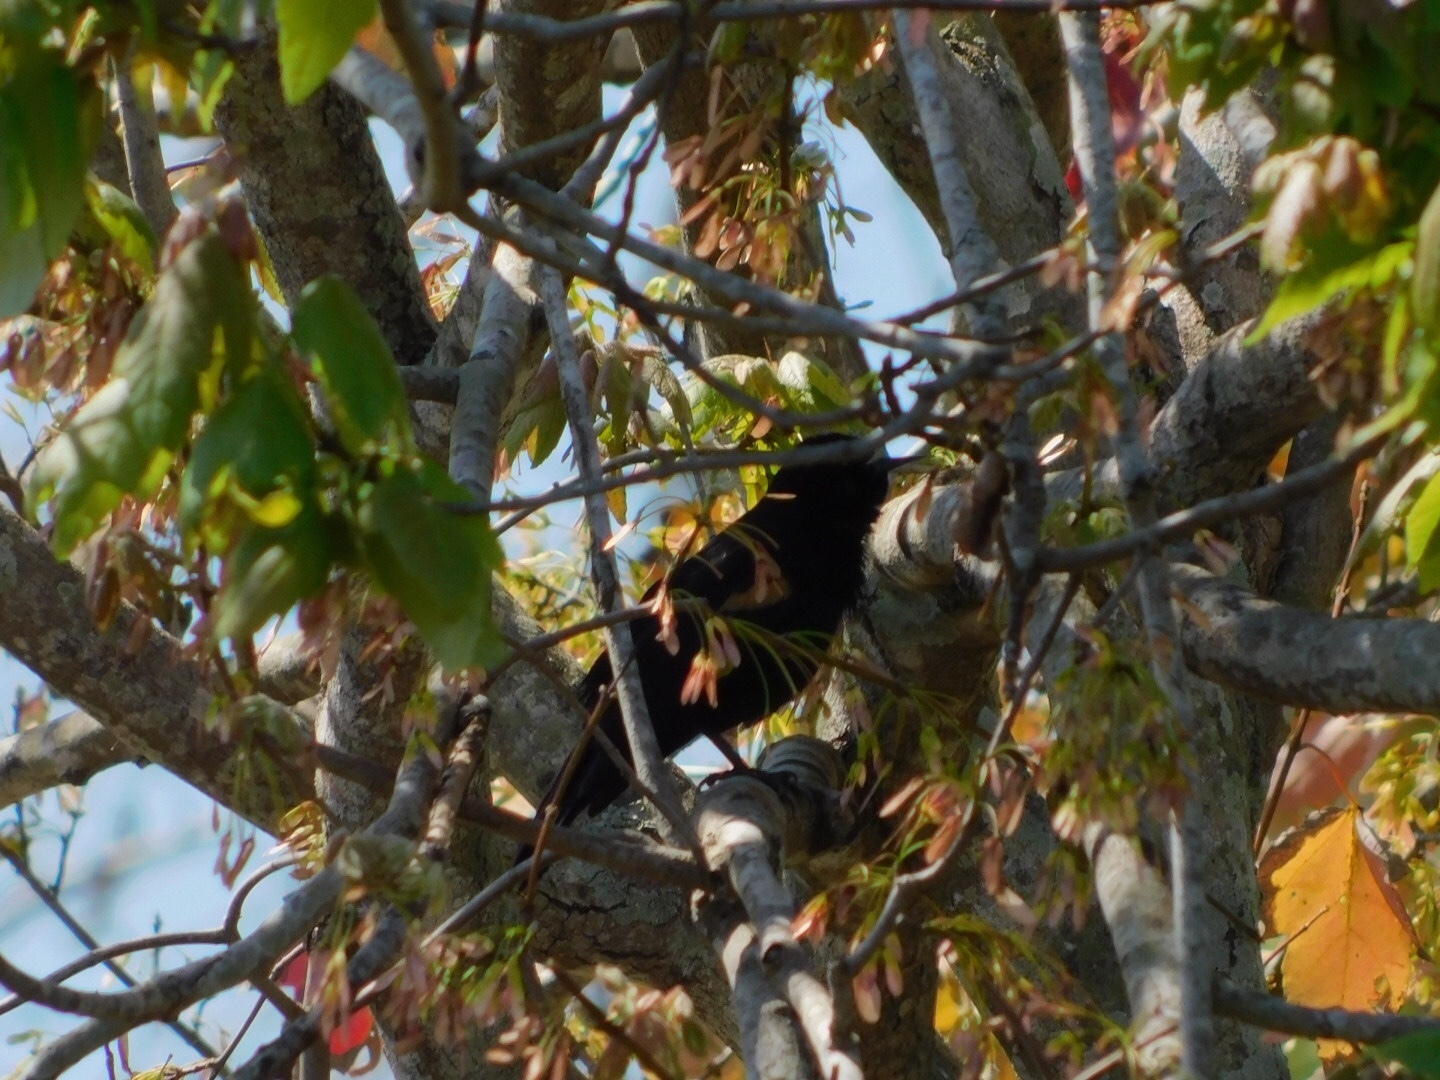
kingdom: Animalia
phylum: Chordata
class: Aves
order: Passeriformes
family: Icteridae
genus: Agelaius
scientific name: Agelaius phoeniceus
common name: Red-winged blackbird
